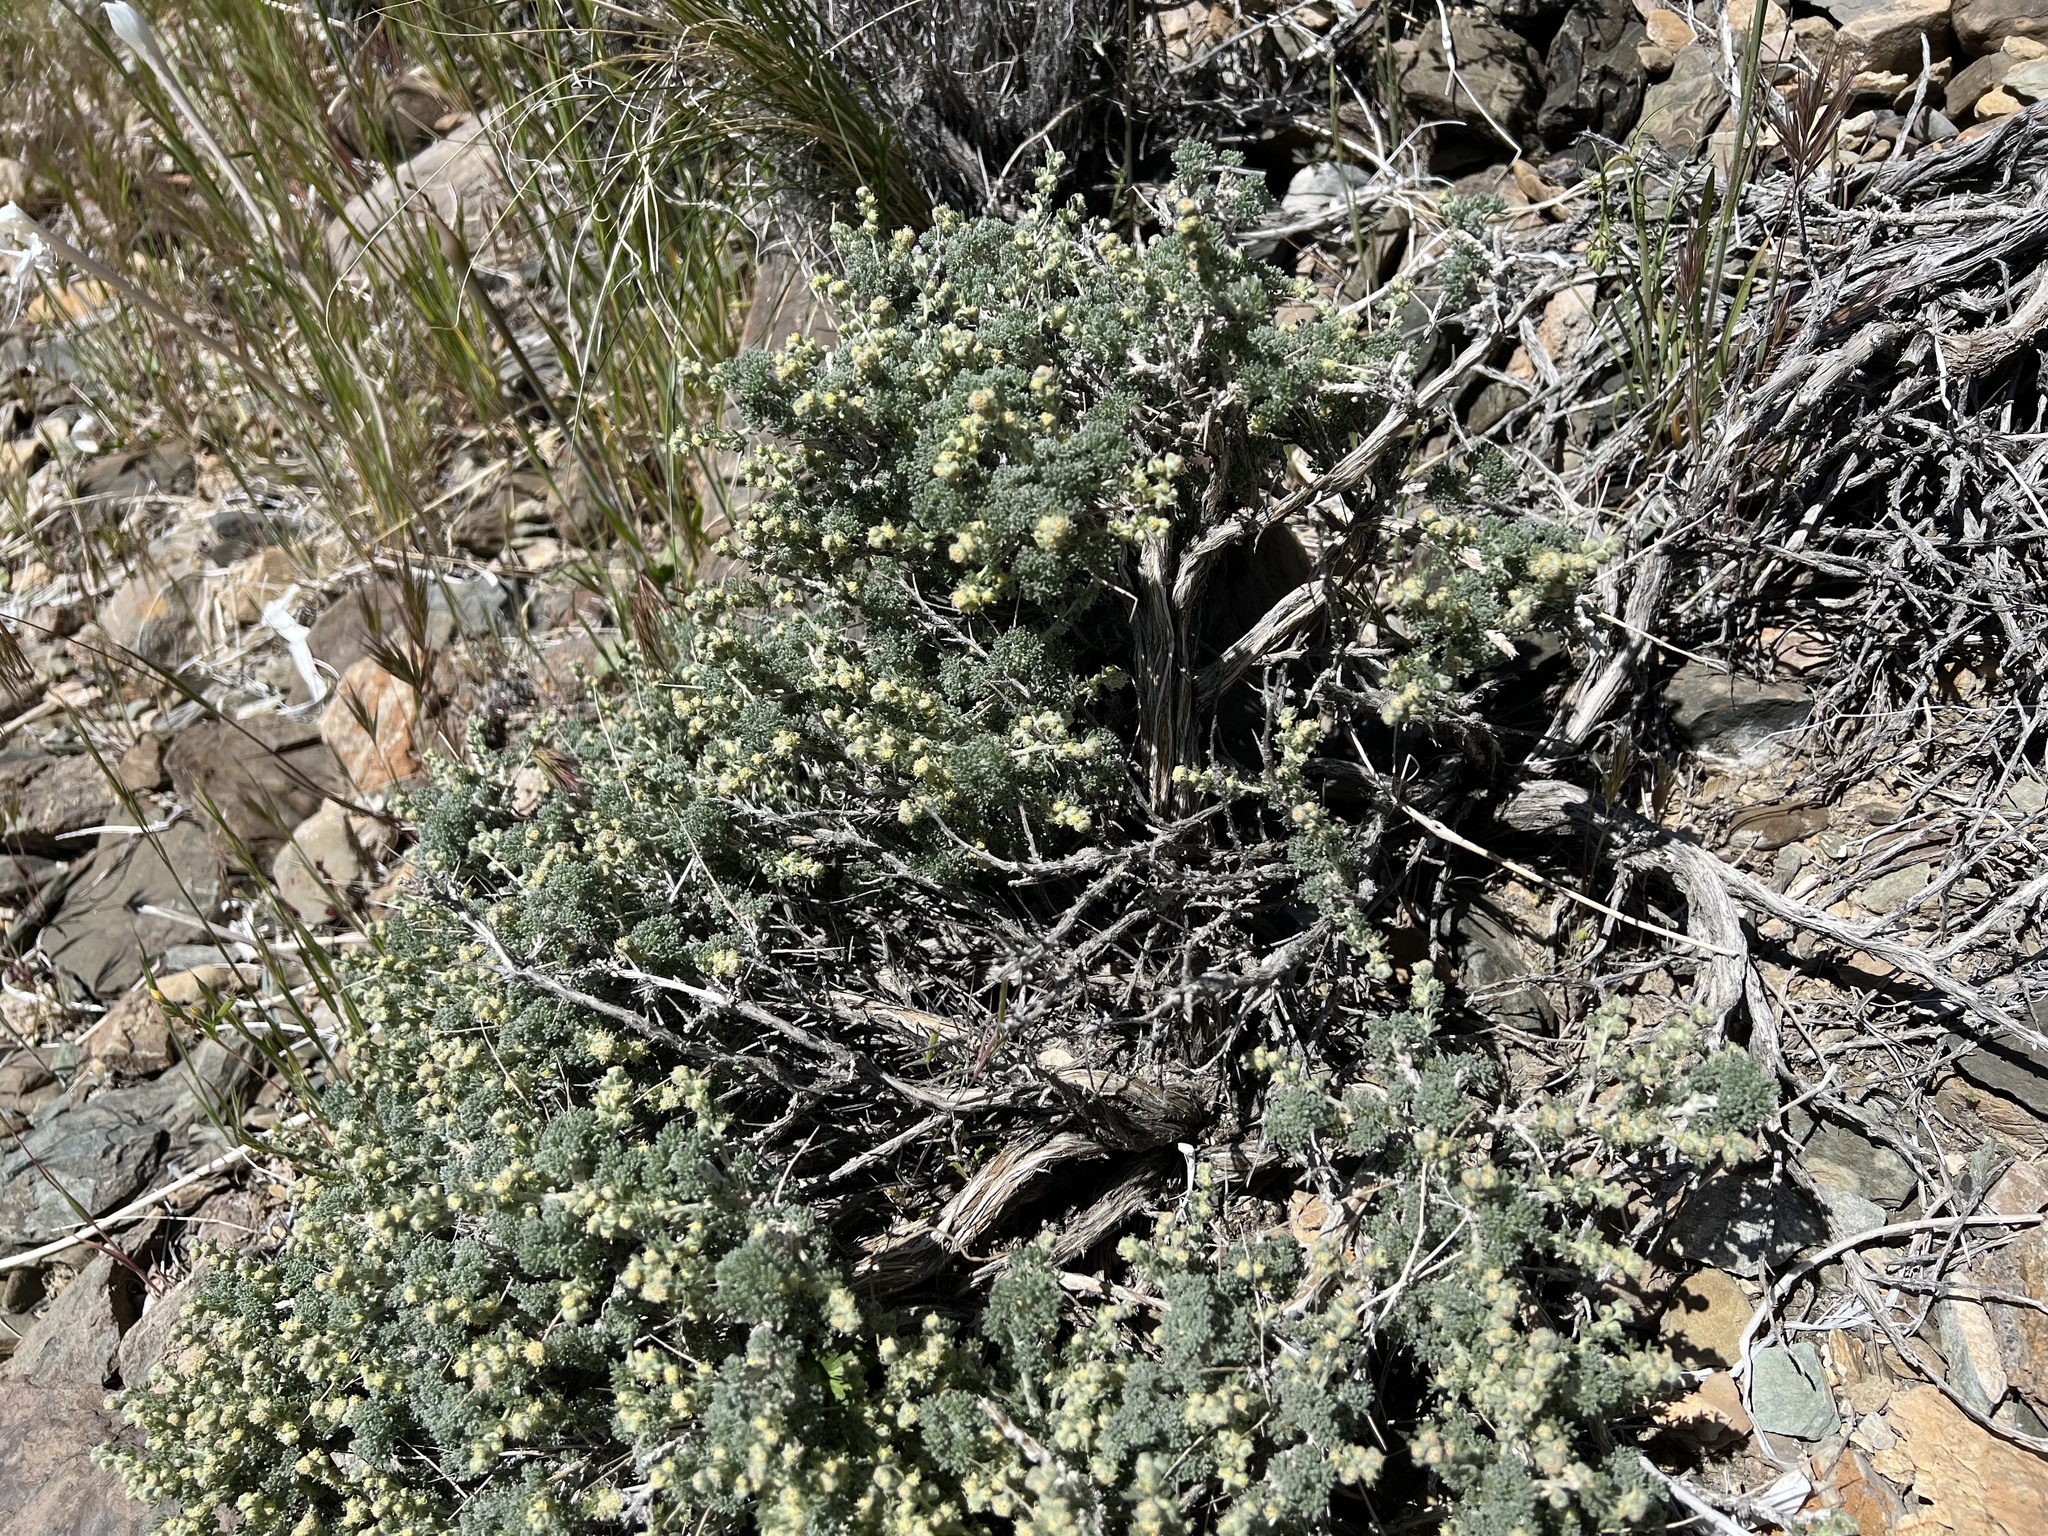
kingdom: Plantae
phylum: Tracheophyta
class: Magnoliopsida
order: Asterales
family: Asteraceae
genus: Artemisia
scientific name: Artemisia spinescens
